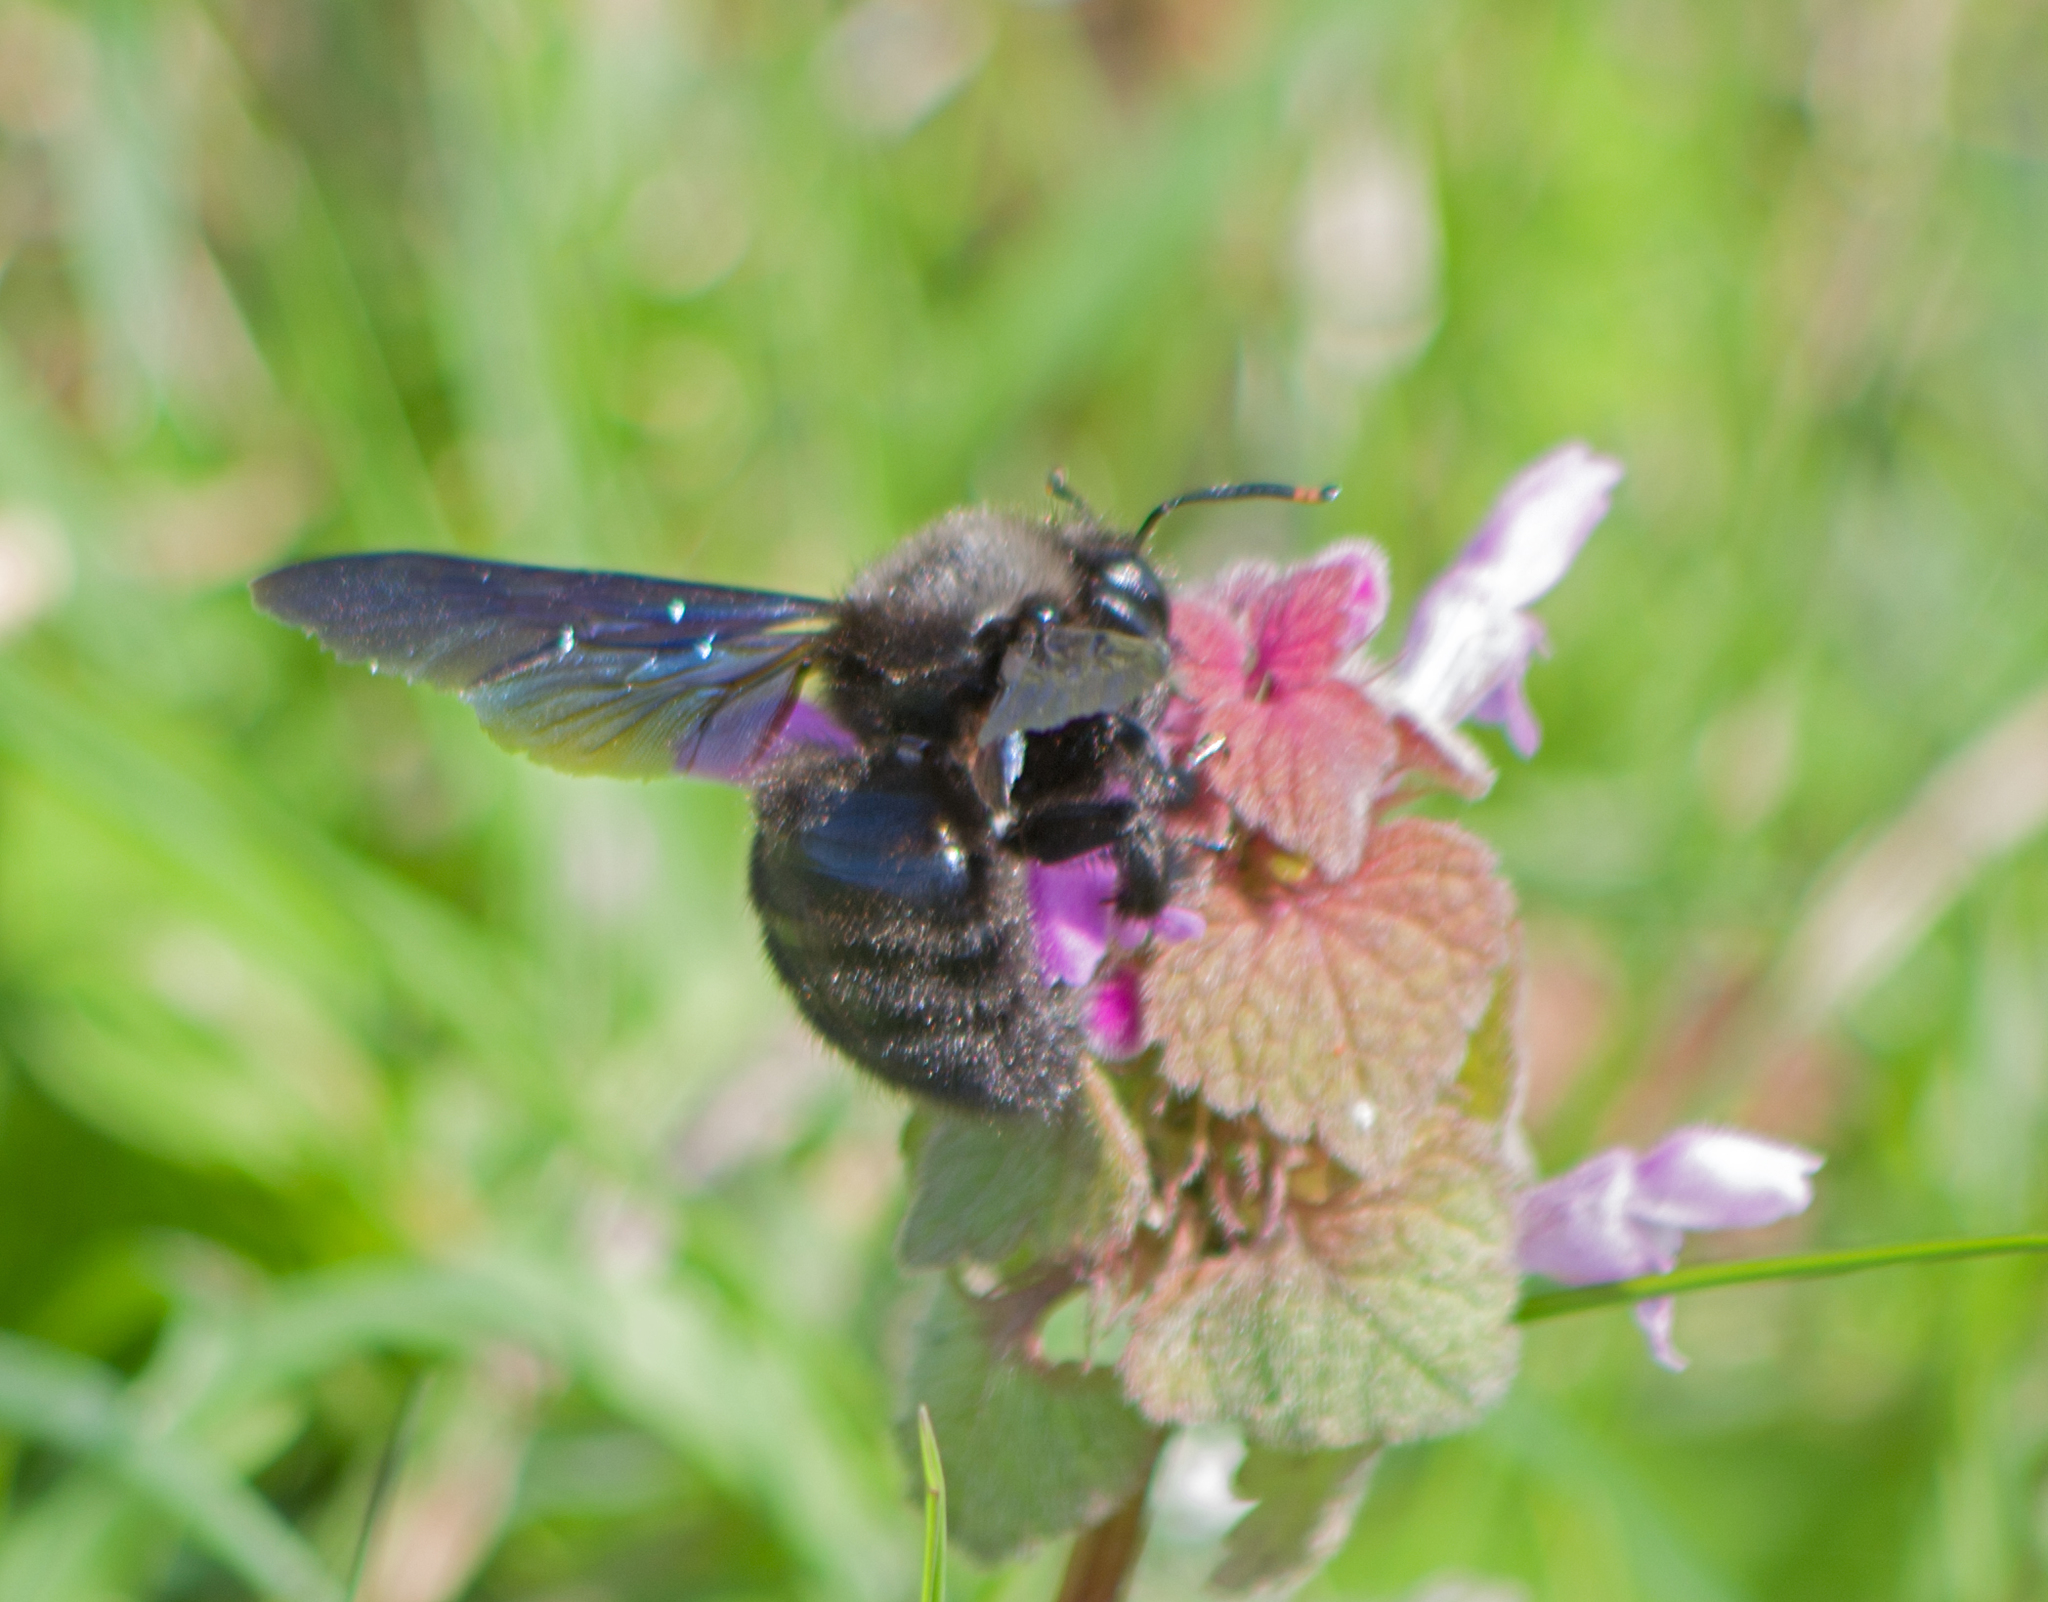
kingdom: Animalia
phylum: Arthropoda
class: Insecta
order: Hymenoptera
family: Apidae
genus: Xylocopa
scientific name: Xylocopa violacea
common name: Violet carpenter bee
